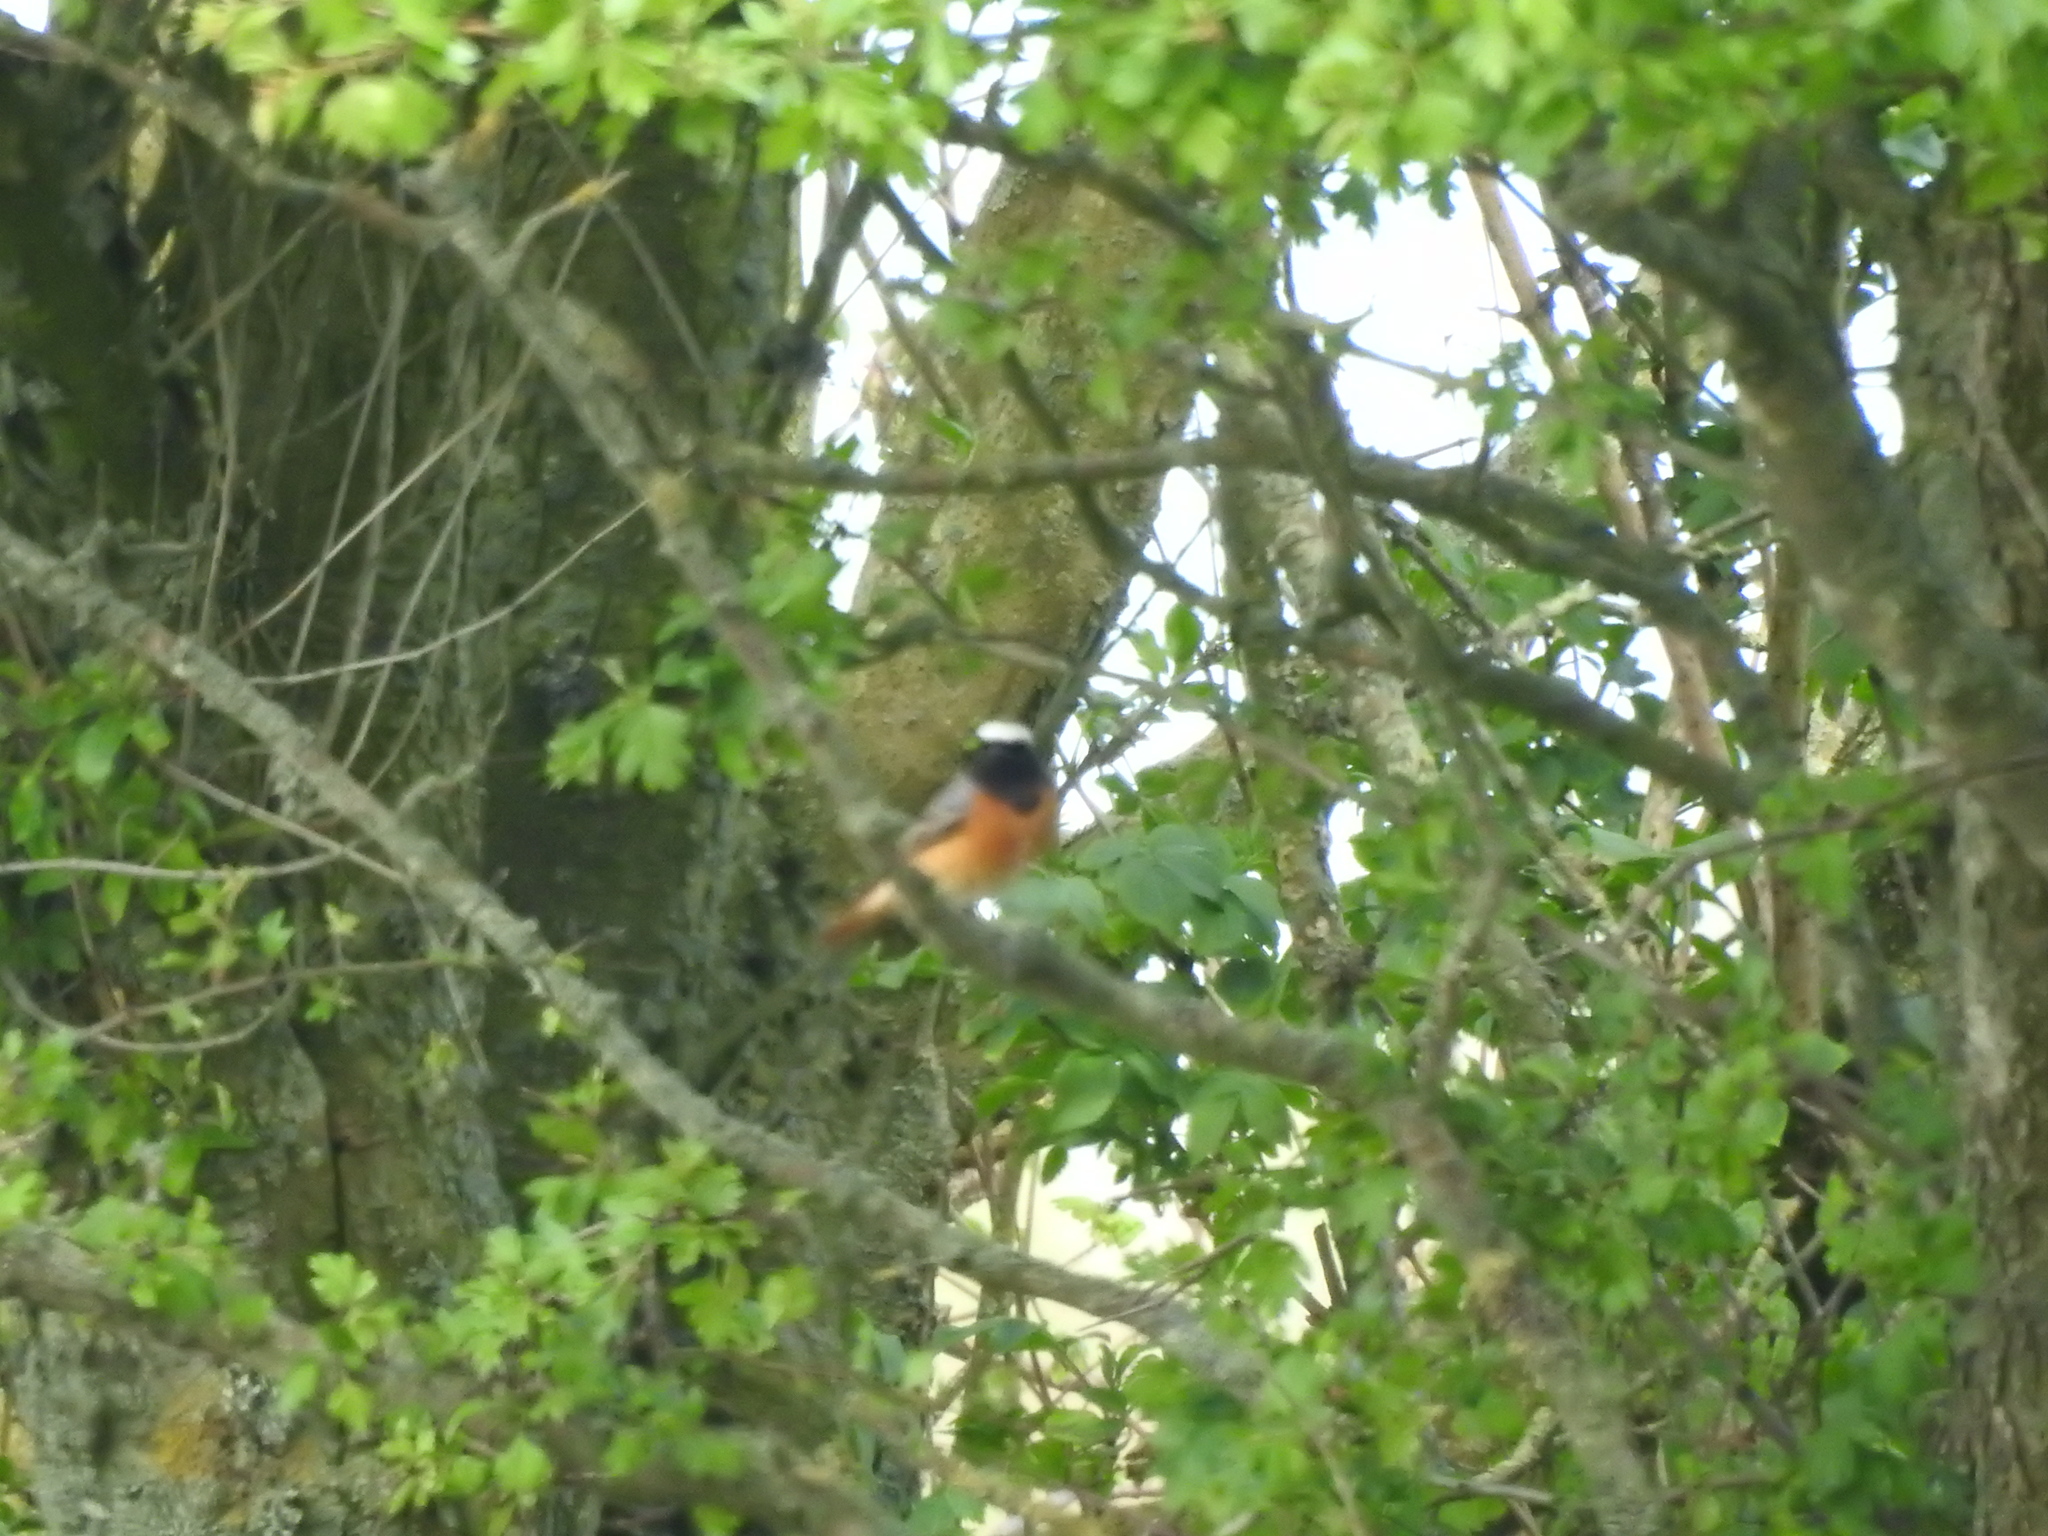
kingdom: Animalia
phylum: Chordata
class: Aves
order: Passeriformes
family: Muscicapidae
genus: Phoenicurus
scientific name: Phoenicurus phoenicurus
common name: Common redstart
